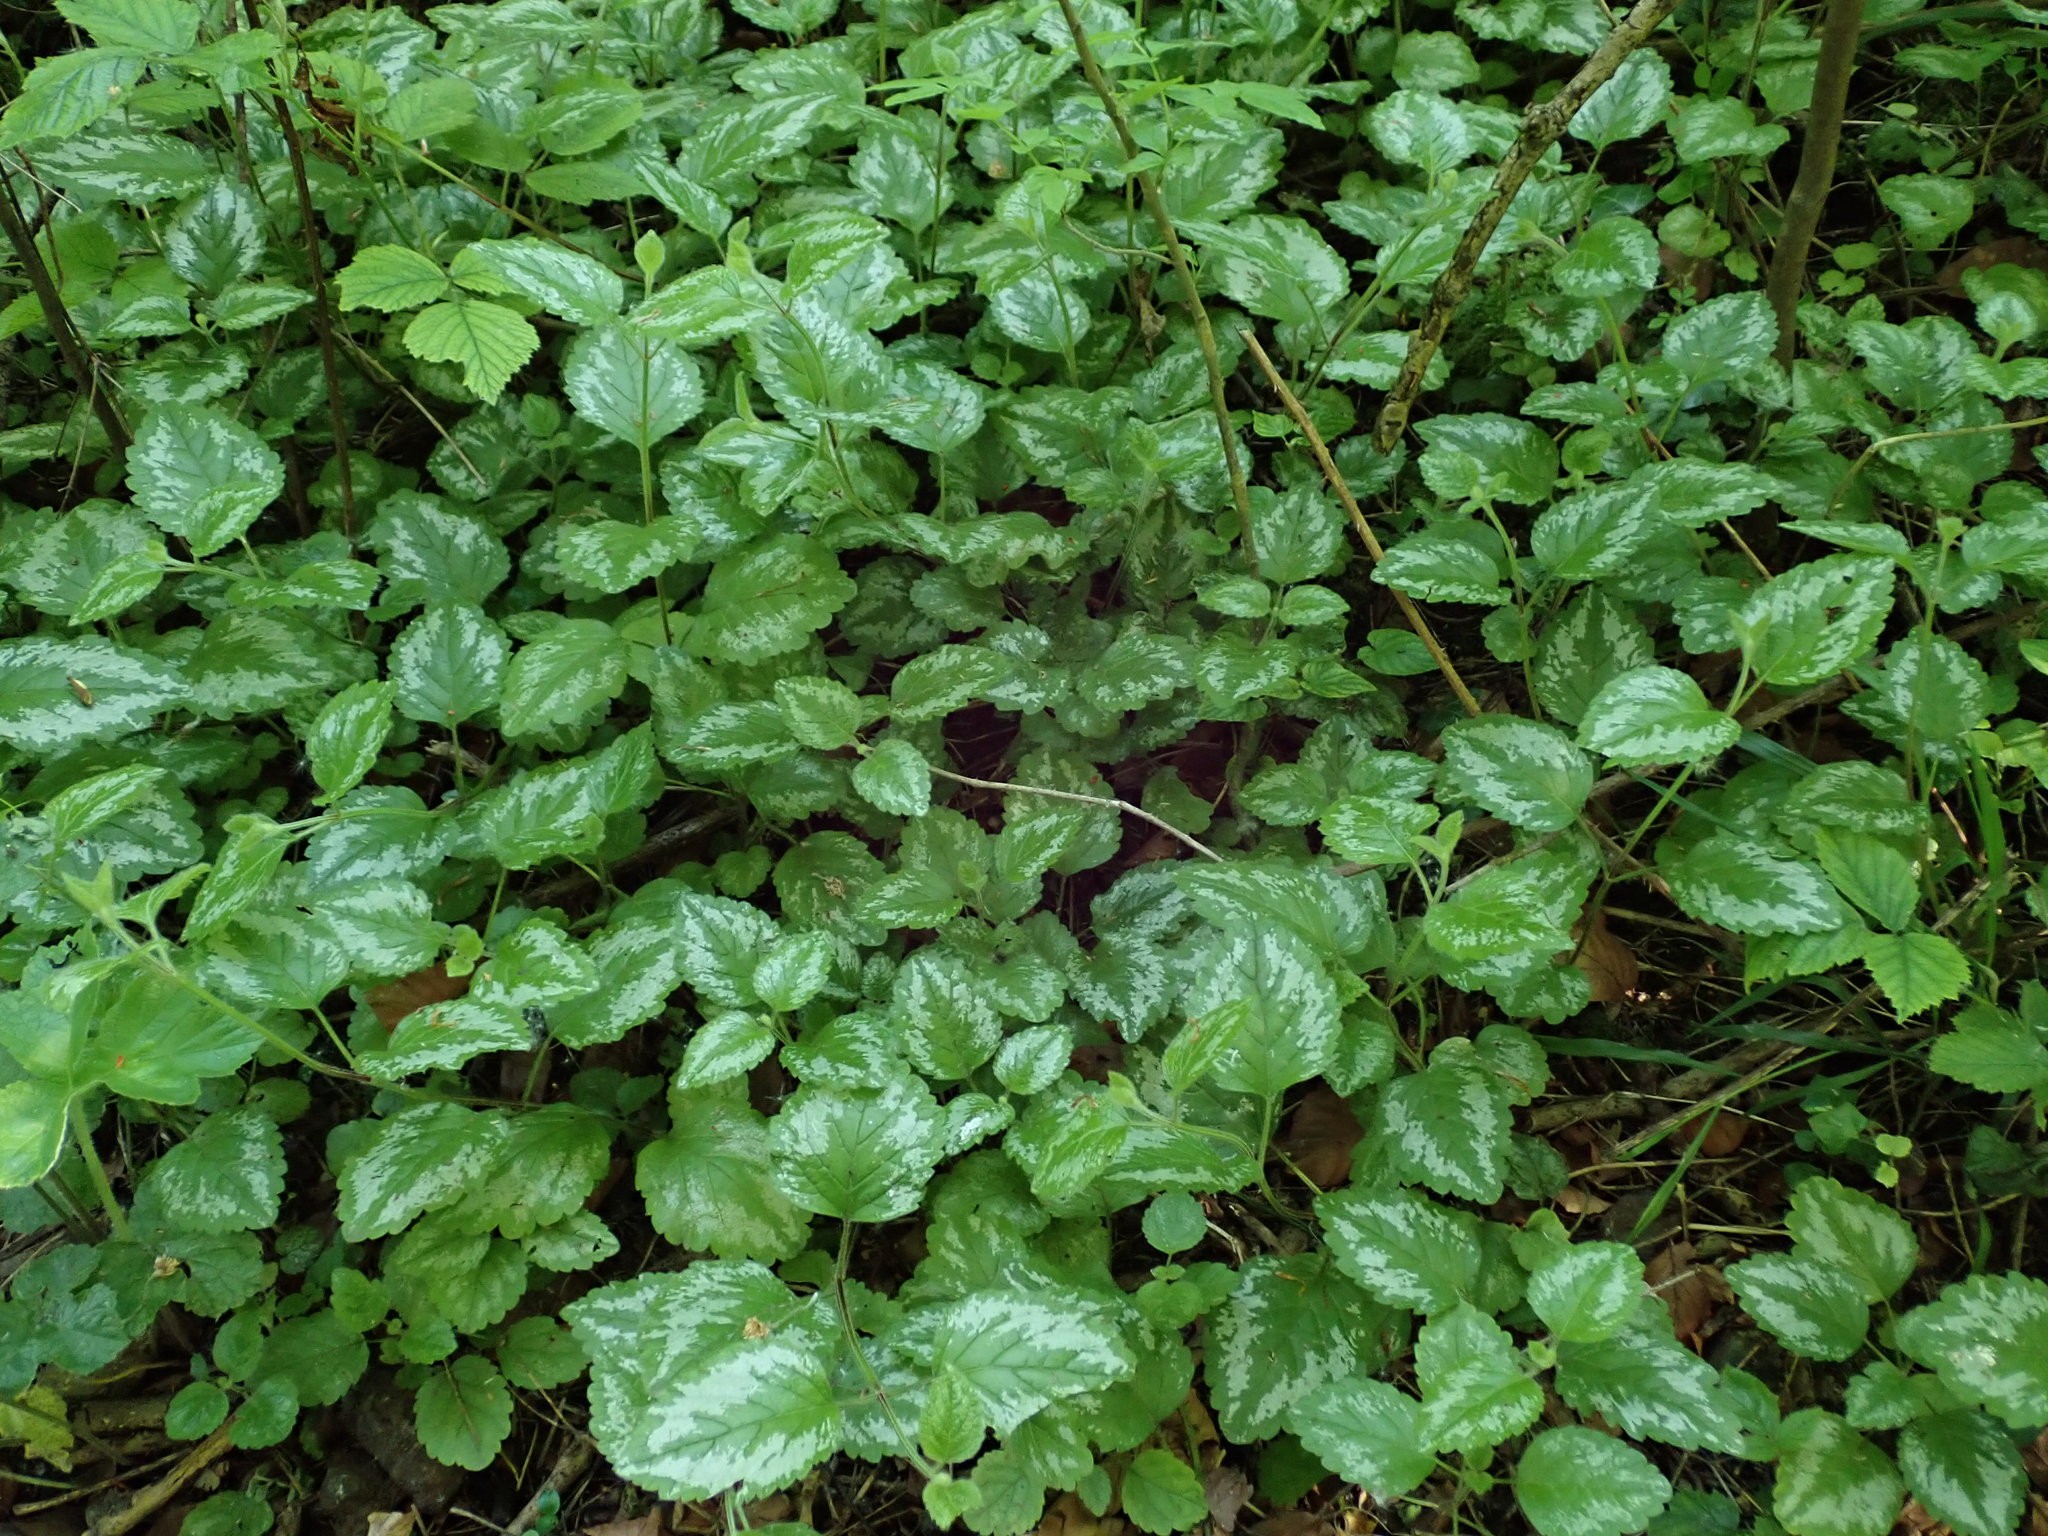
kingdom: Plantae
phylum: Tracheophyta
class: Magnoliopsida
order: Lamiales
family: Lamiaceae
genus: Lamium
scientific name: Lamium galeobdolon
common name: Yellow archangel
